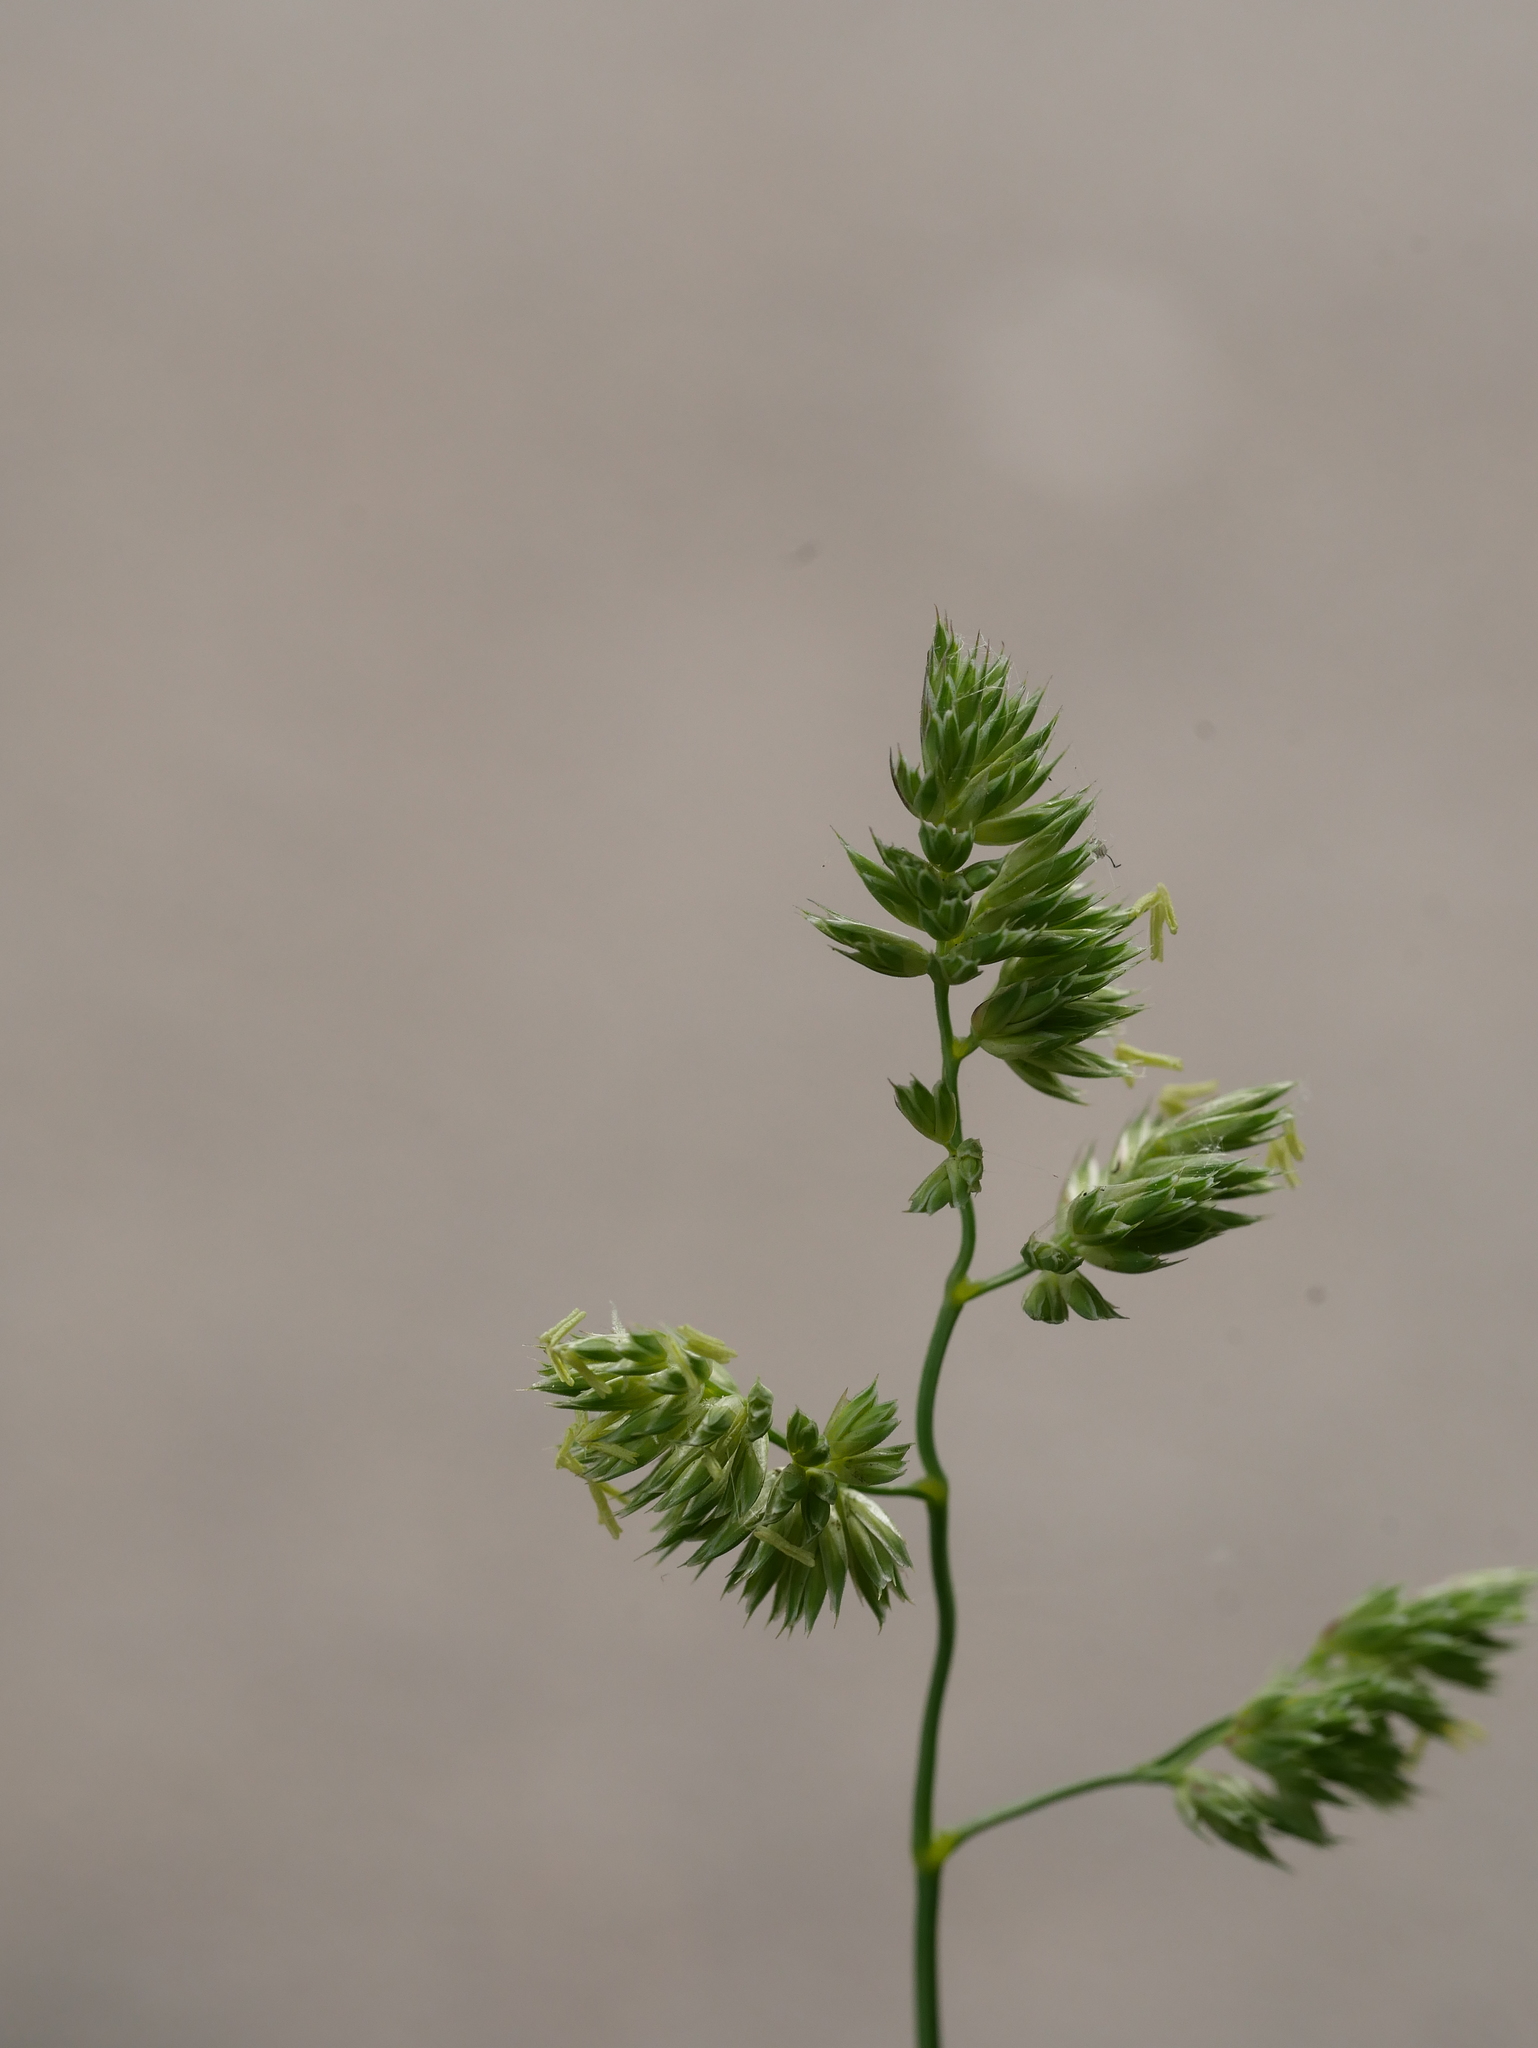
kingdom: Plantae
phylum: Tracheophyta
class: Liliopsida
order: Poales
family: Poaceae
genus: Dactylis
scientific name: Dactylis glomerata
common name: Orchardgrass
